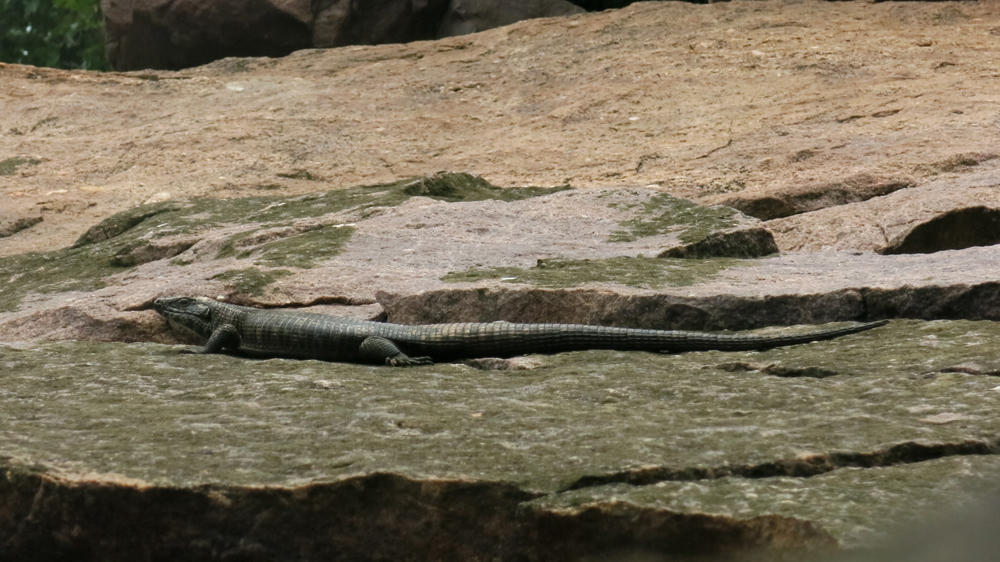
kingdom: Animalia
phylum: Chordata
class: Squamata
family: Gerrhosauridae
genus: Matobosaurus
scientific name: Matobosaurus validus
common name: Common giant plated lizard
